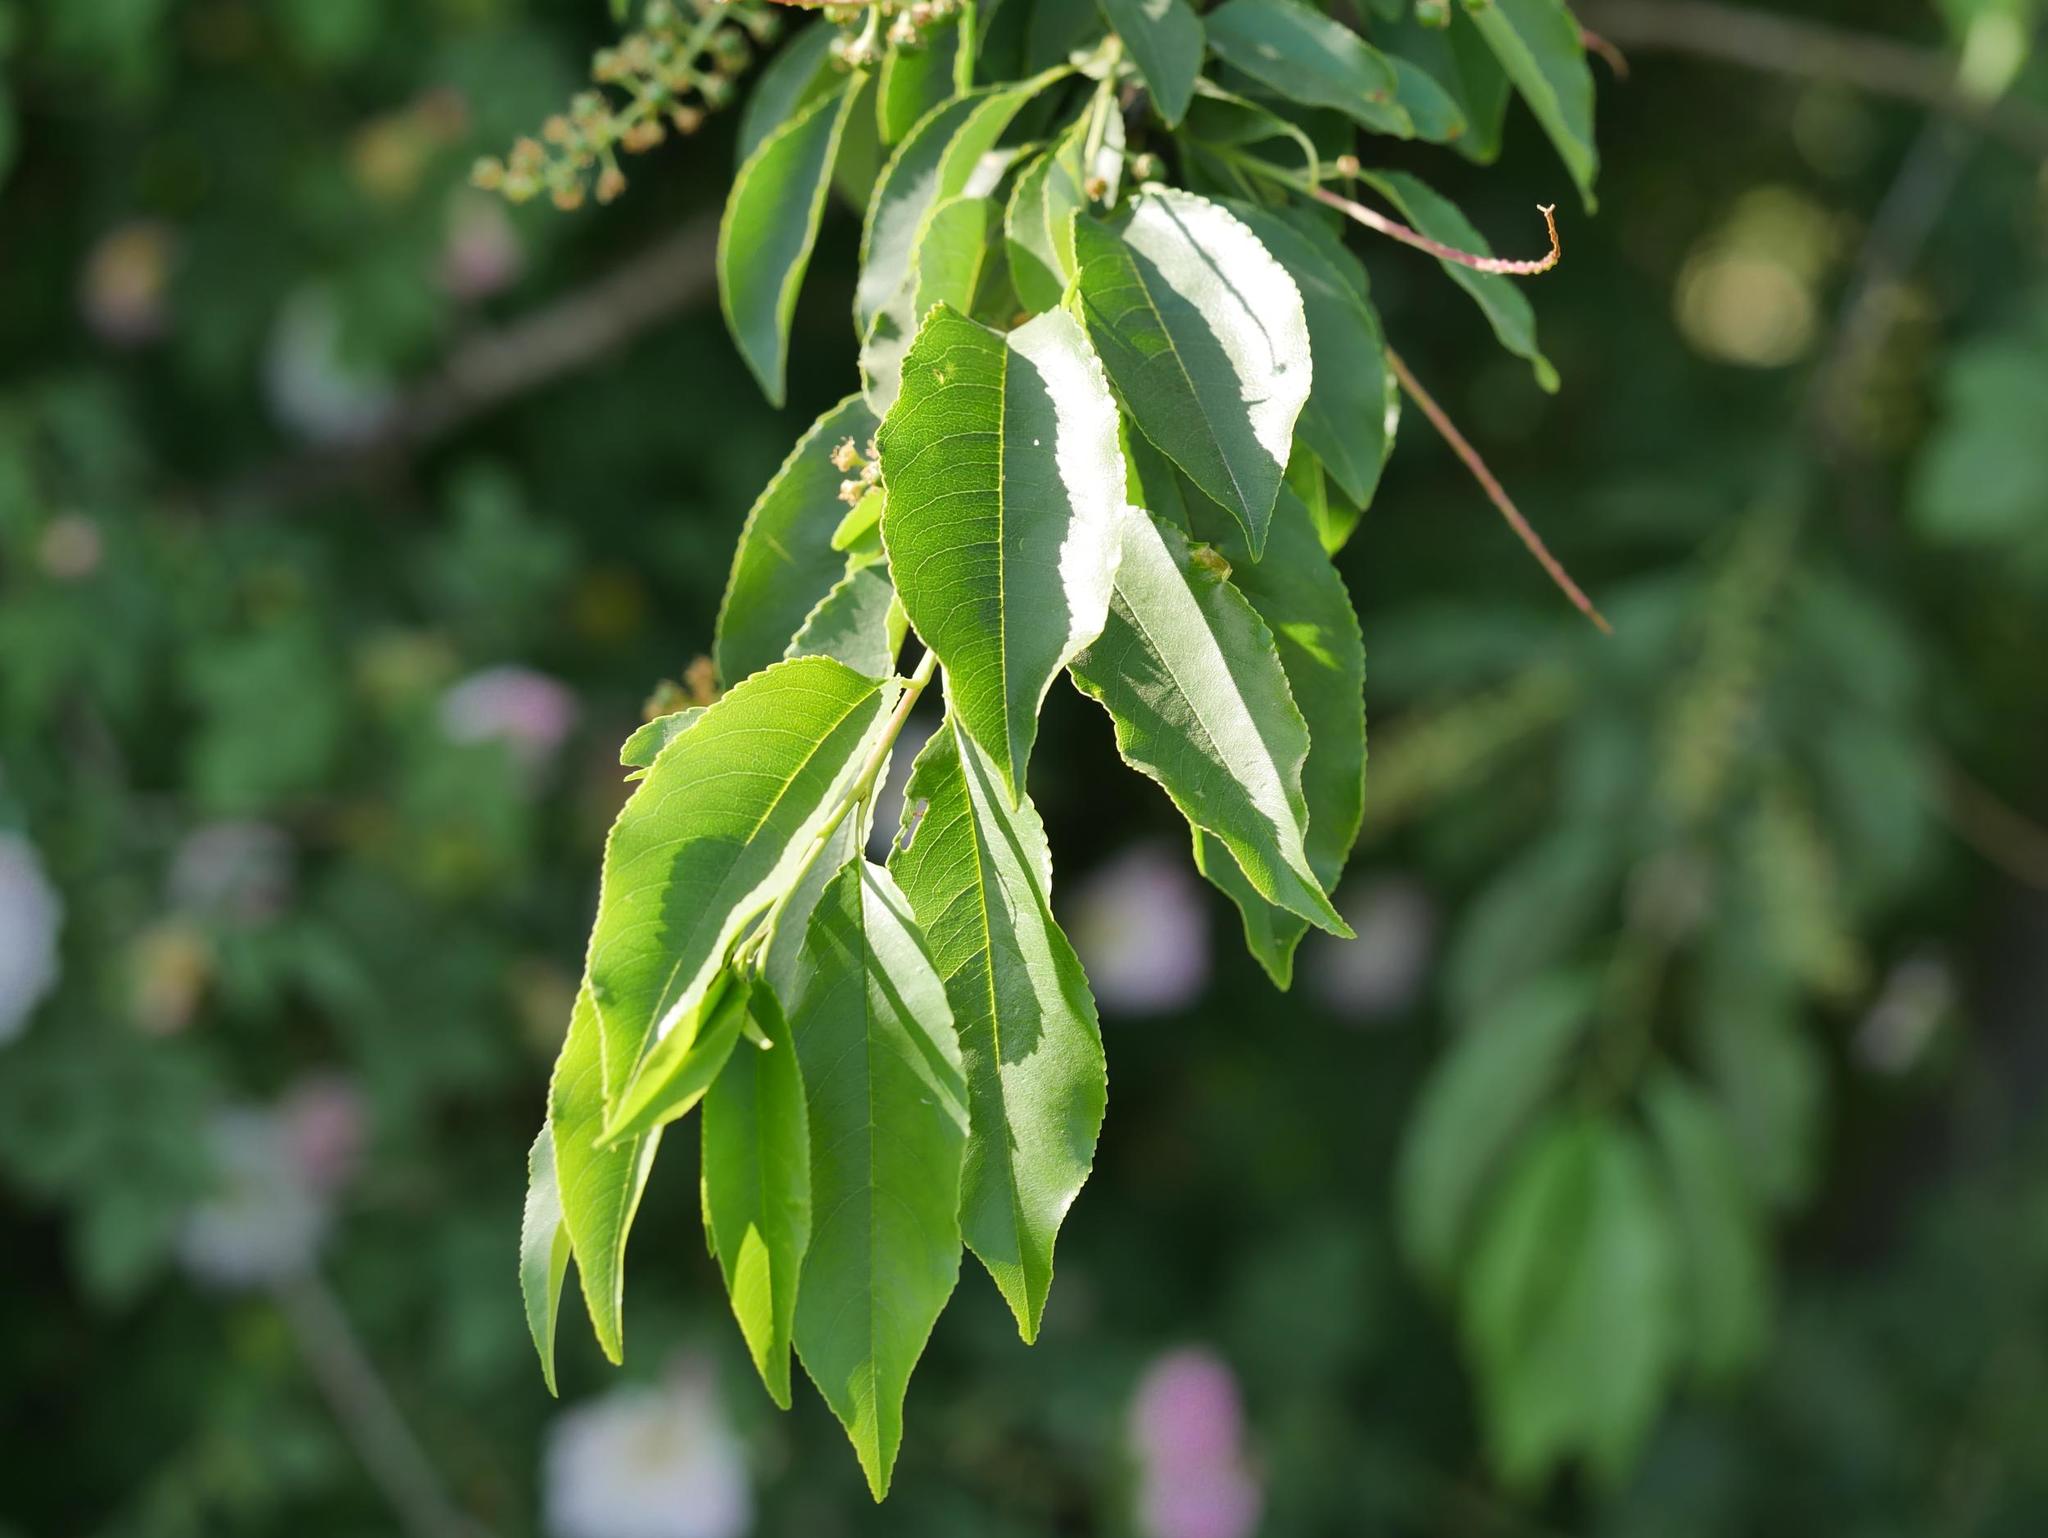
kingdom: Plantae
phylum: Tracheophyta
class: Magnoliopsida
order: Rosales
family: Rosaceae
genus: Prunus
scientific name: Prunus serotina
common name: Black cherry
